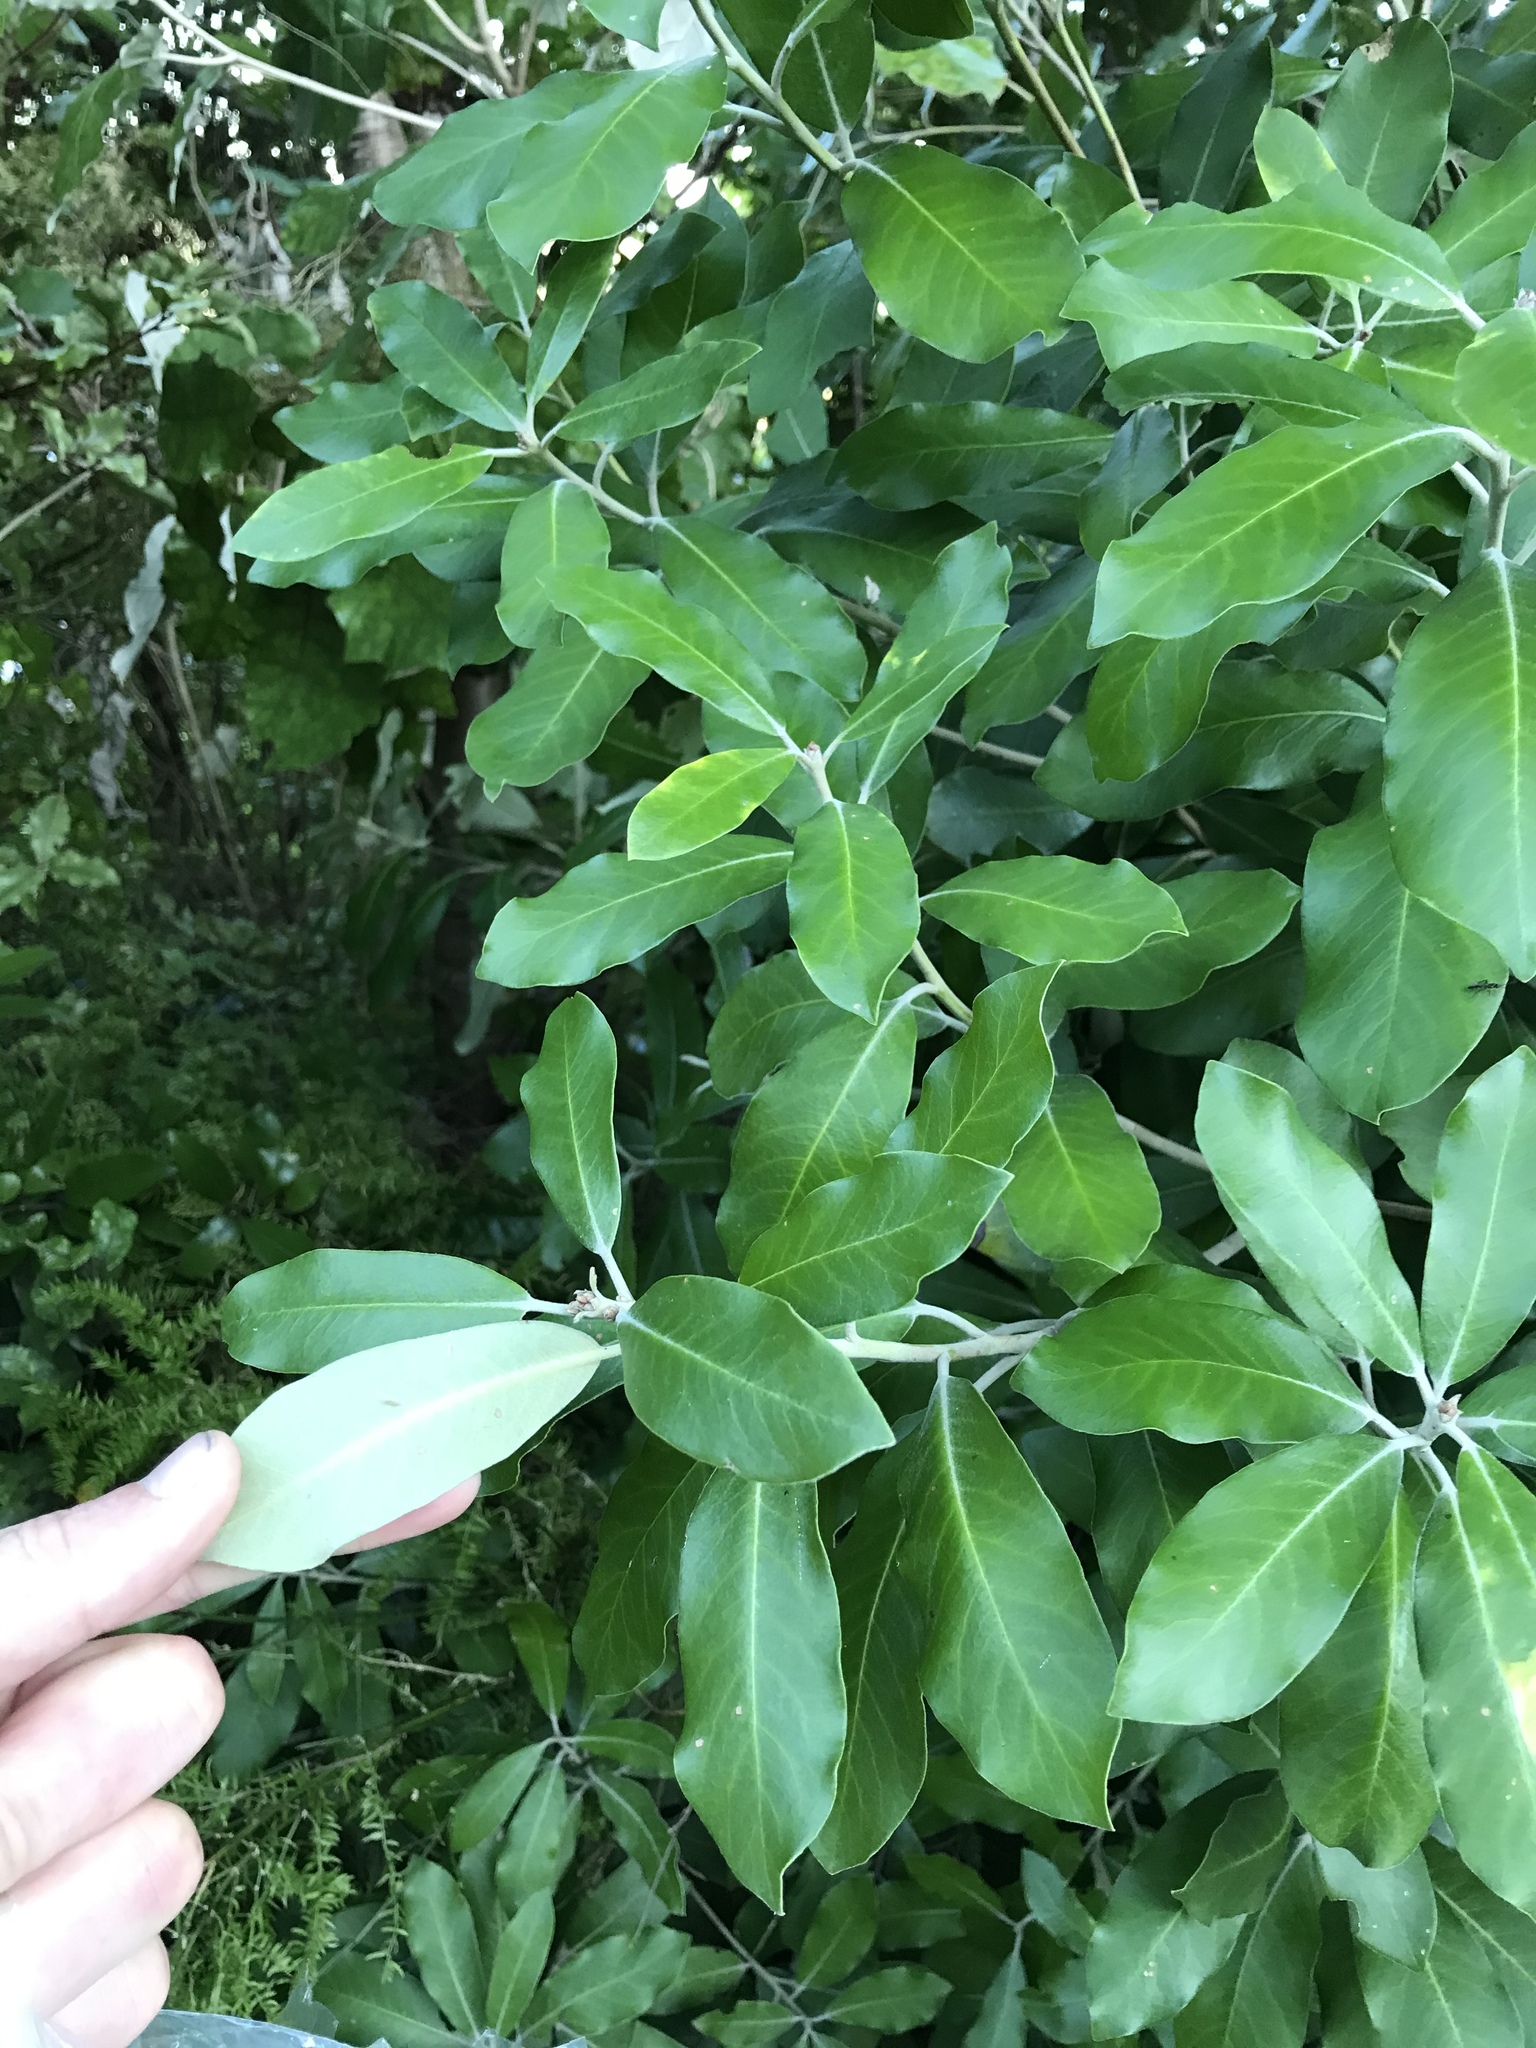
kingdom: Plantae
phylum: Tracheophyta
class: Magnoliopsida
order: Apiales
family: Pittosporaceae
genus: Pittosporum
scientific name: Pittosporum ralphii
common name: Ralph's desertwillow
